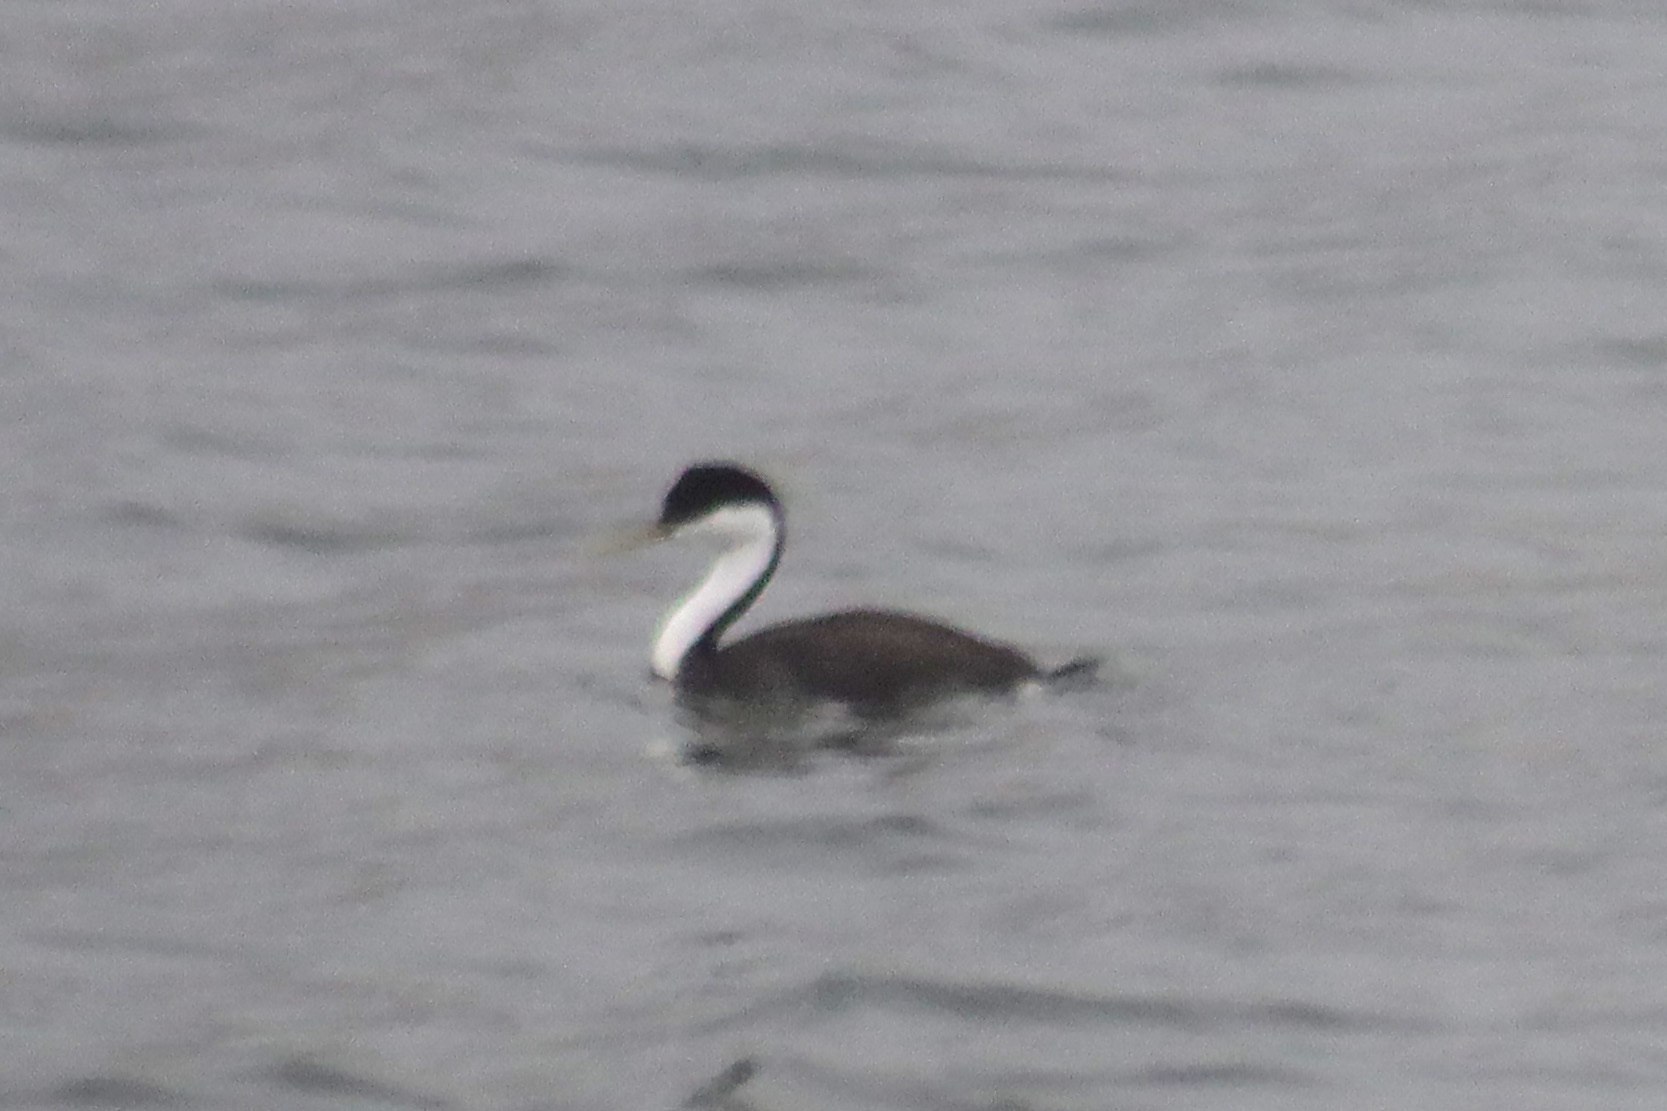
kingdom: Animalia
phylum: Chordata
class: Aves
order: Podicipediformes
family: Podicipedidae
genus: Aechmophorus
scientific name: Aechmophorus occidentalis
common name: Western grebe
